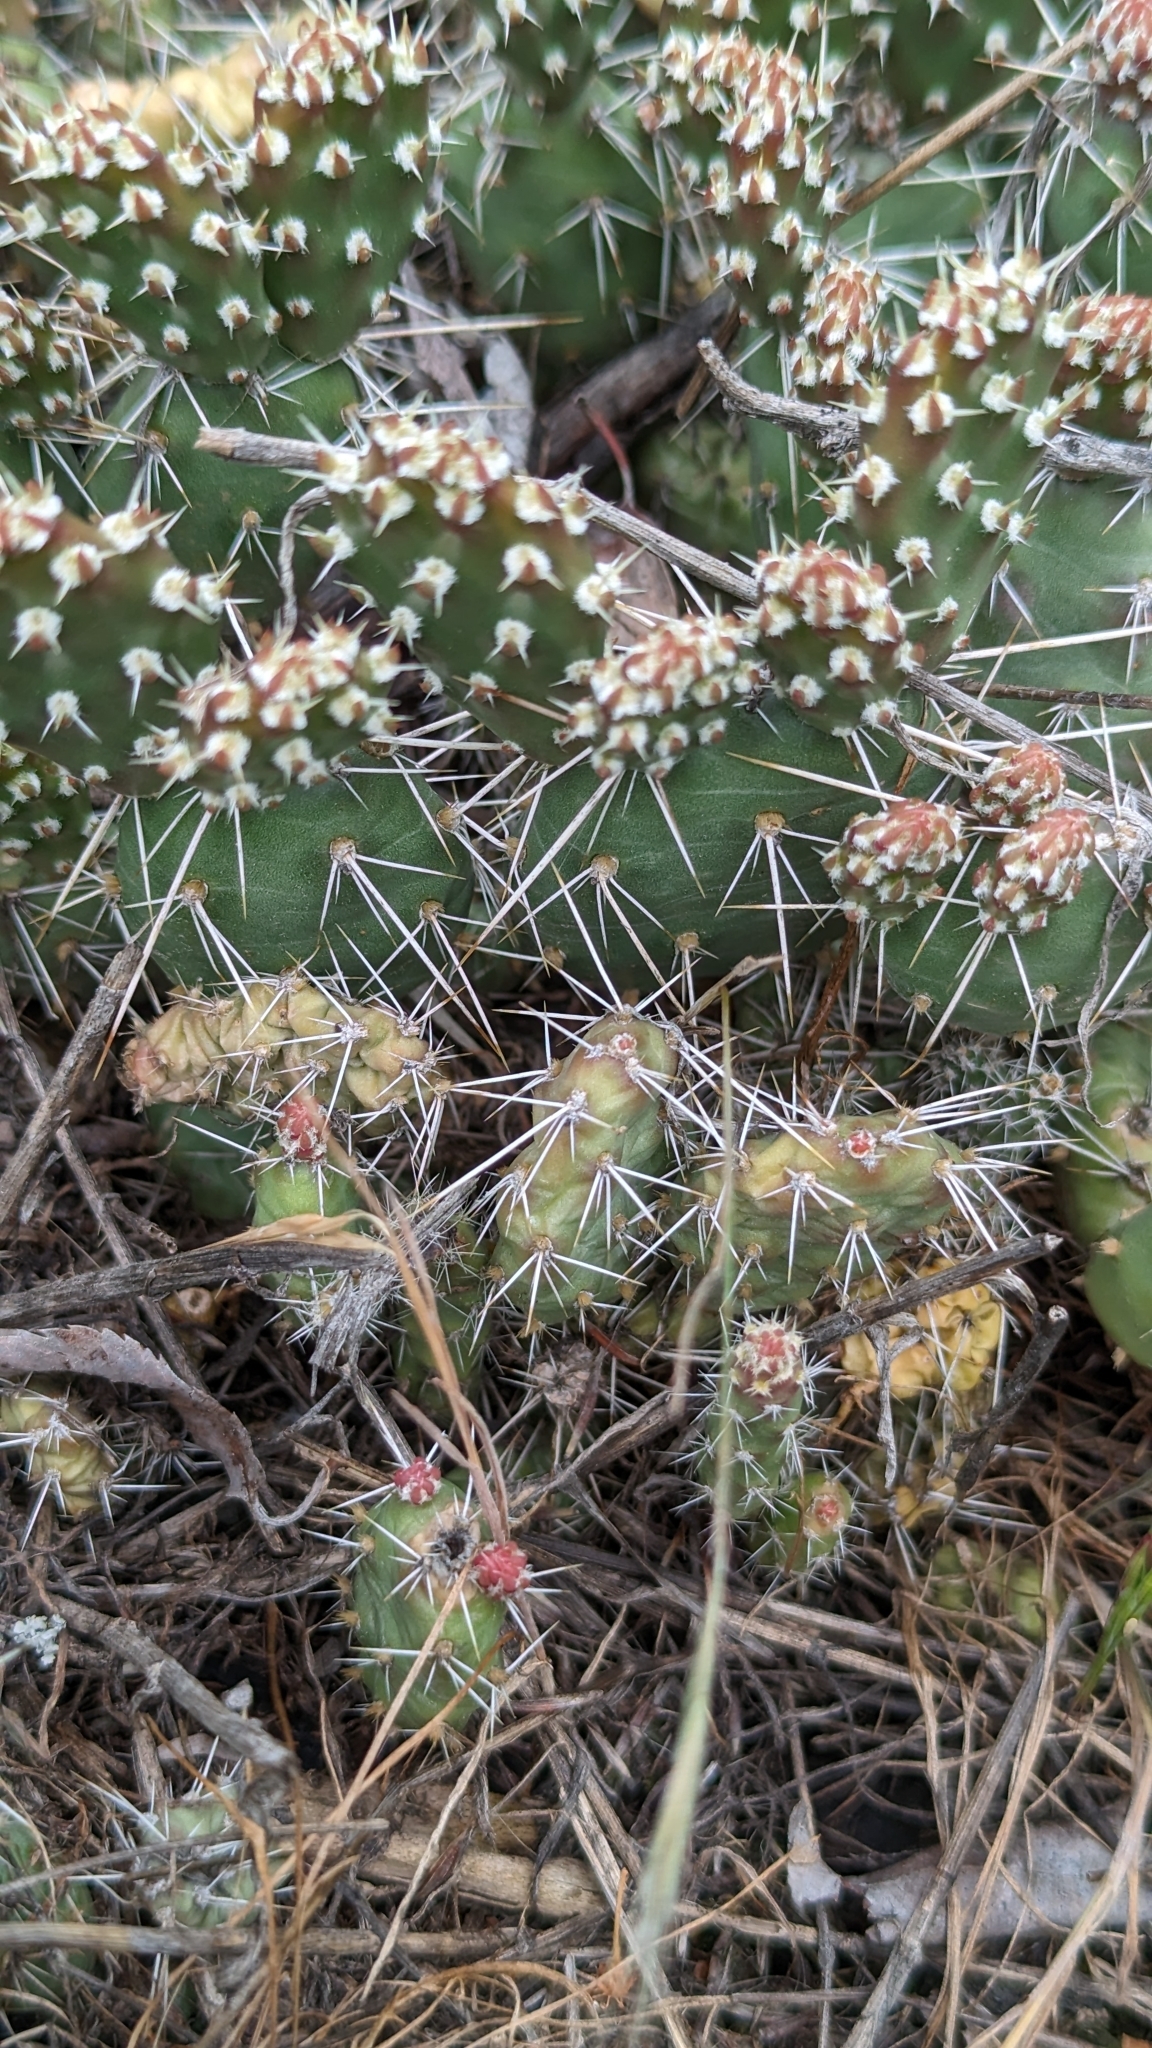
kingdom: Plantae
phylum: Tracheophyta
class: Magnoliopsida
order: Caryophyllales
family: Cactaceae
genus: Opuntia
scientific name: Opuntia fragilis
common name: Brittle cactus
